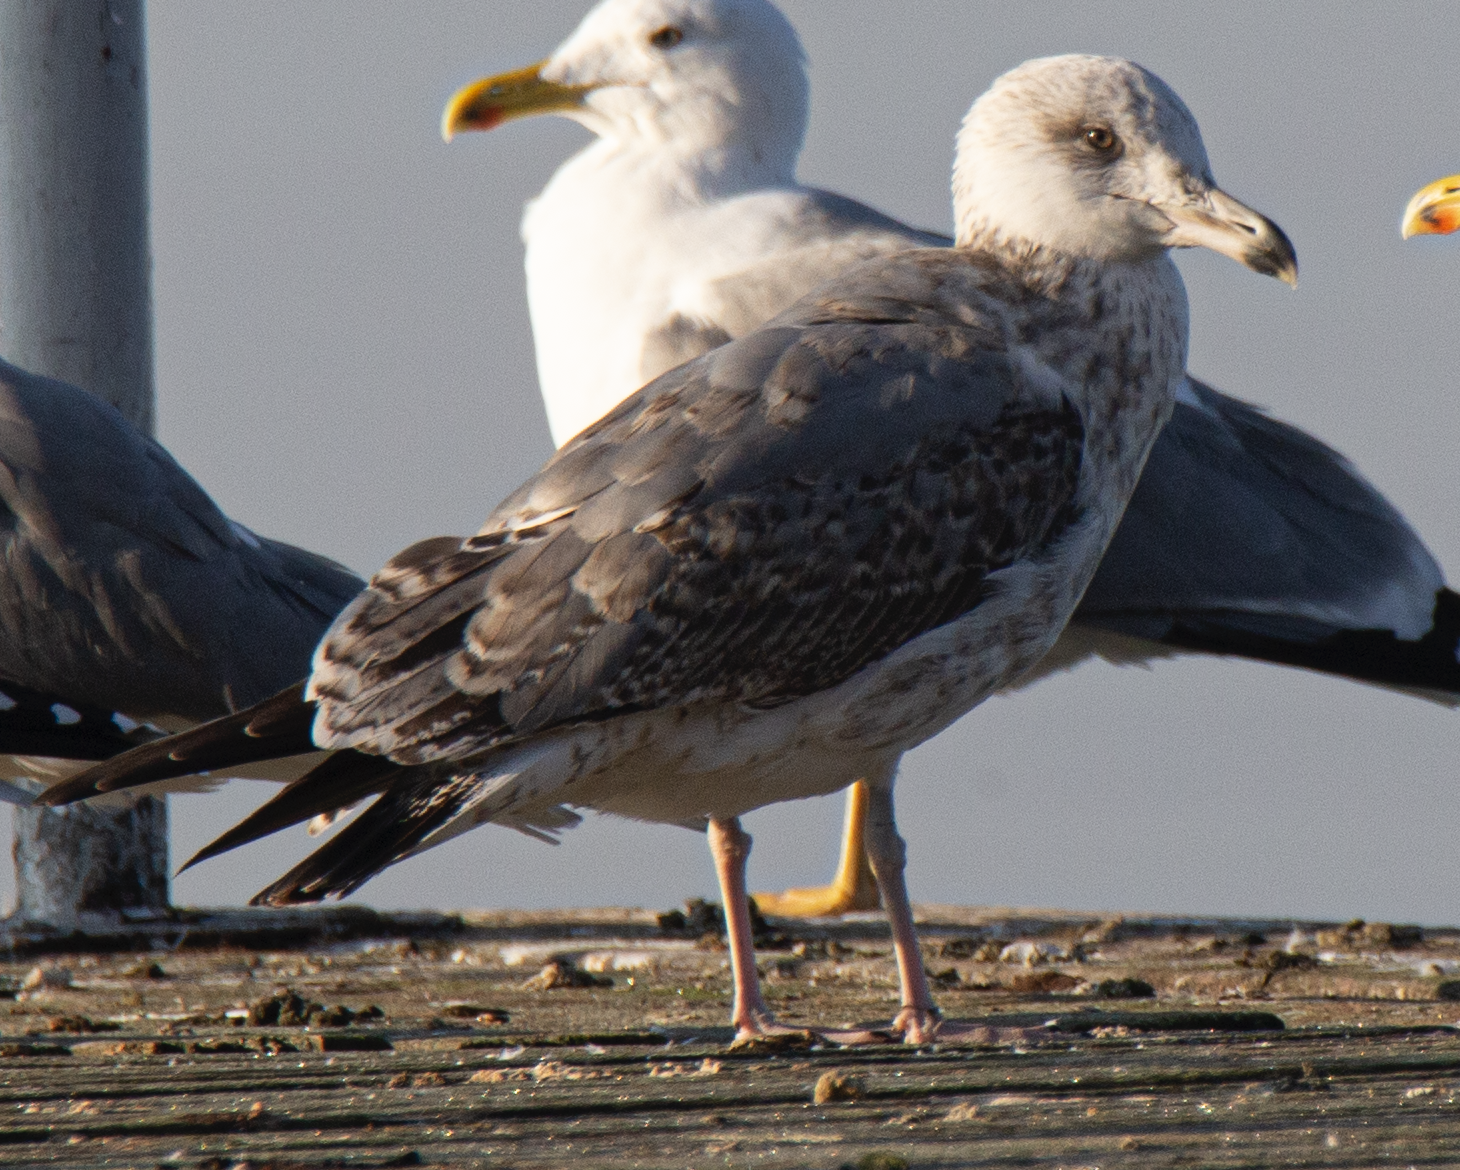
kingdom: Animalia
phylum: Chordata
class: Aves
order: Charadriiformes
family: Laridae
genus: Larus
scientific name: Larus michahellis
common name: Yellow-legged gull
